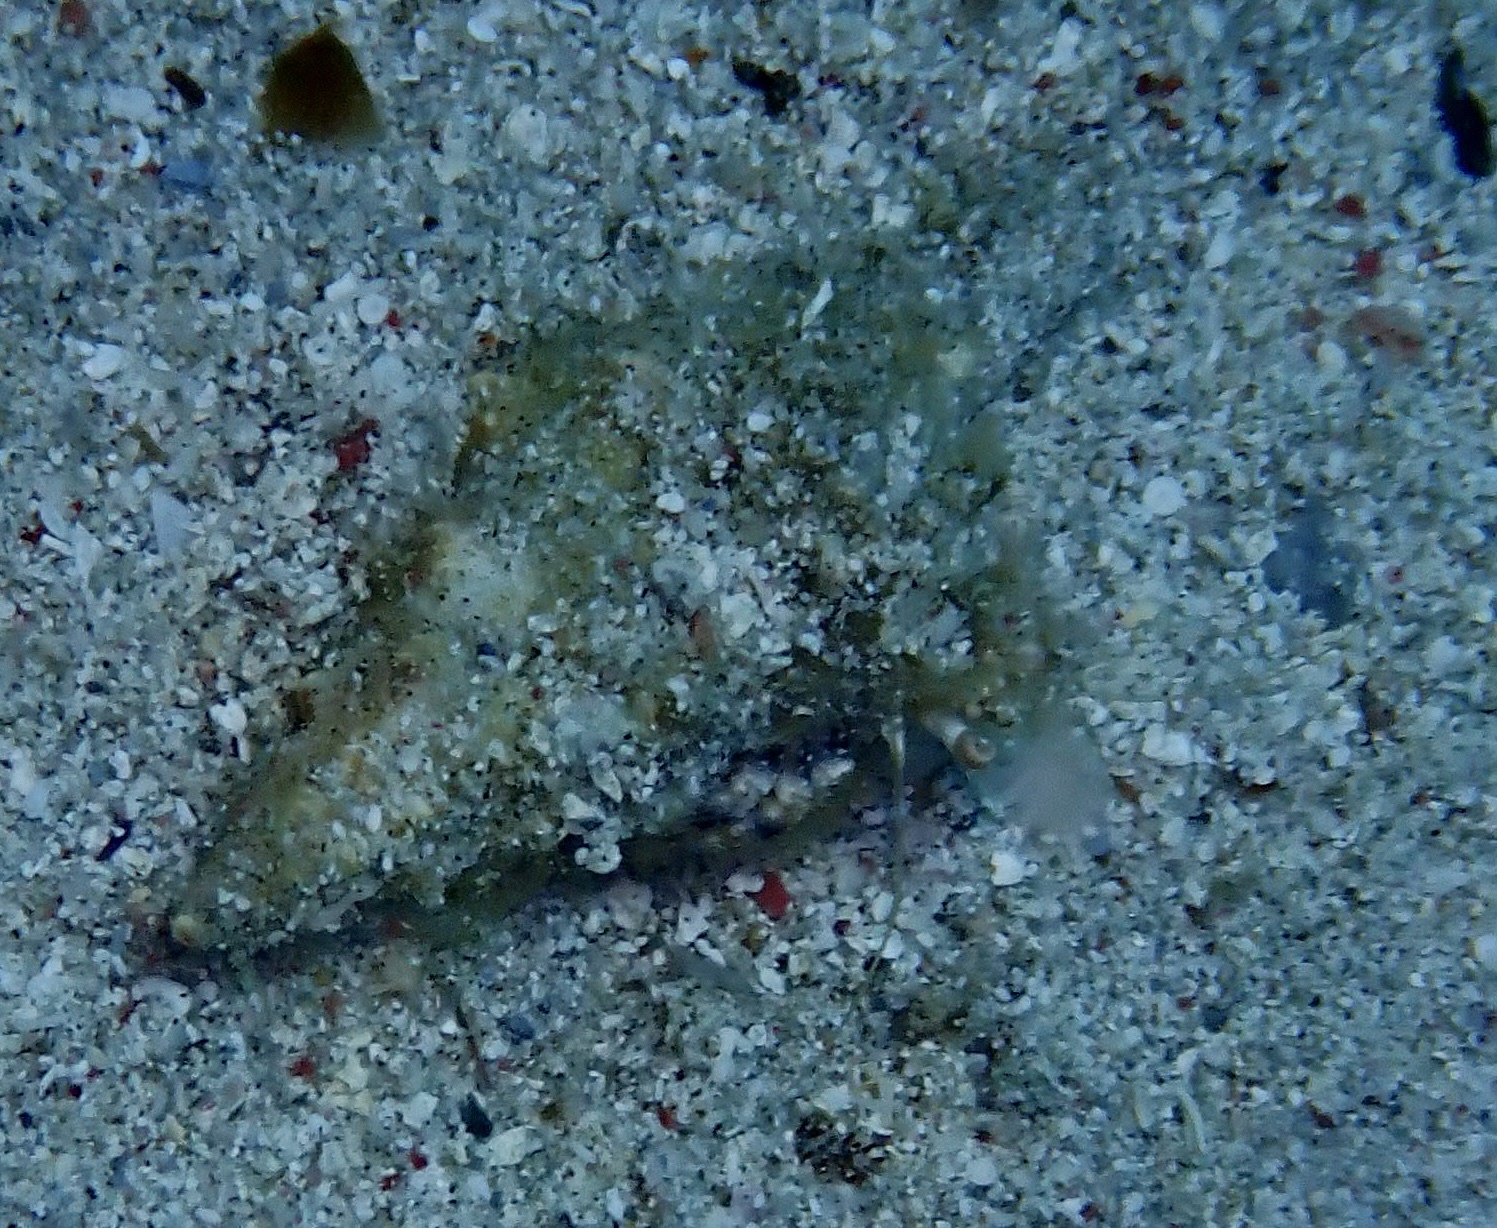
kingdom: Animalia
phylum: Arthropoda
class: Malacostraca
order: Decapoda
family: Diogenidae
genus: Dardanus
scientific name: Dardanus woodmasoni
